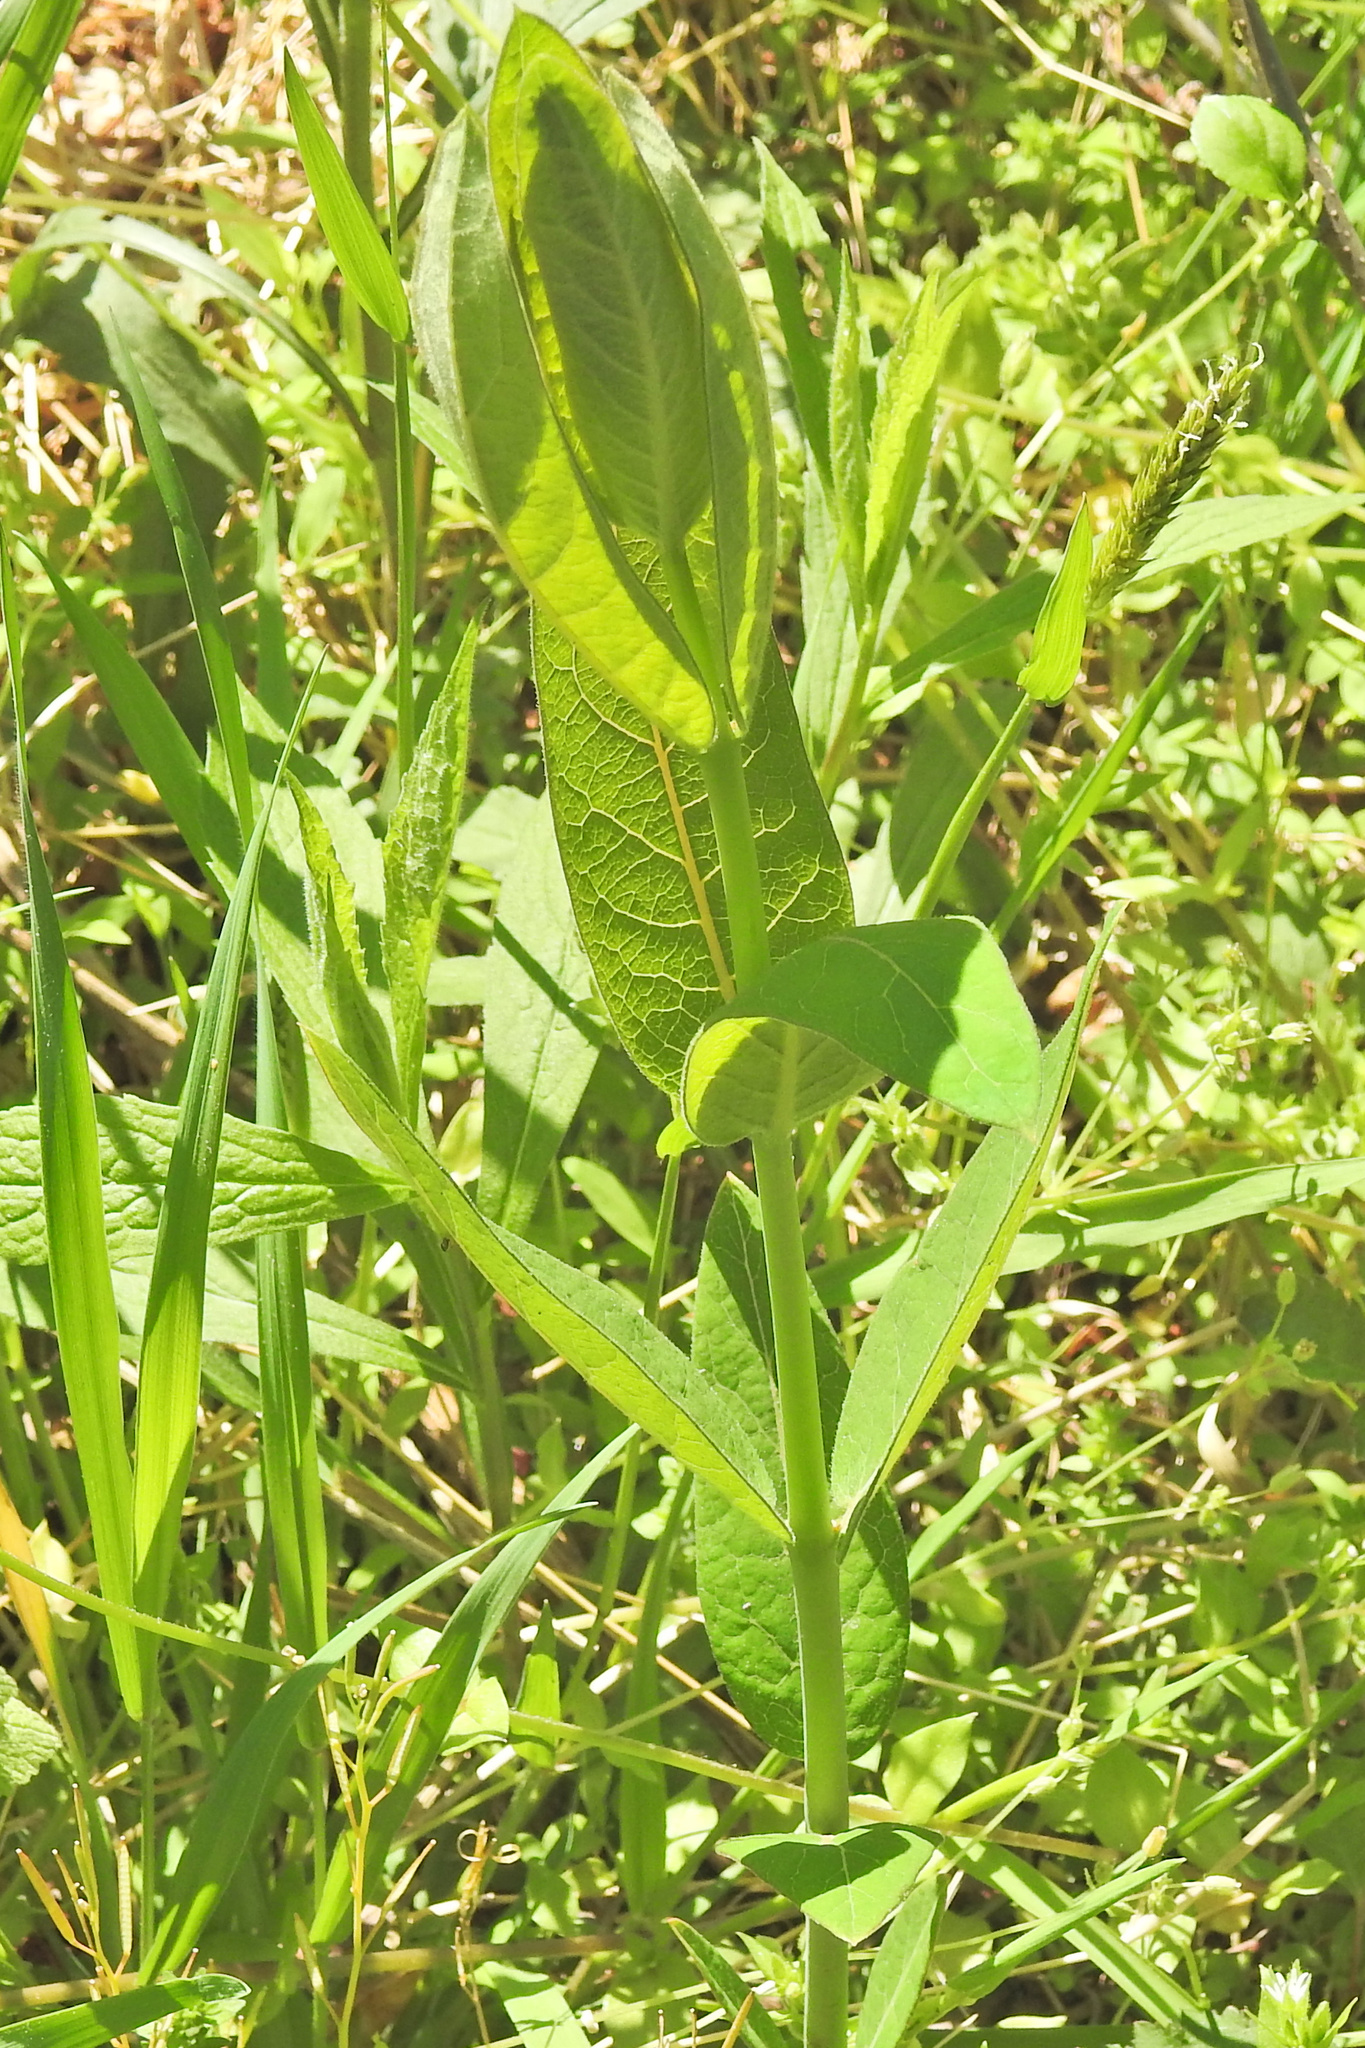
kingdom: Plantae
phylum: Tracheophyta
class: Magnoliopsida
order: Gentianales
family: Apocynaceae
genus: Apocynum
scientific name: Apocynum cannabinum
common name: Hemp dogbane
